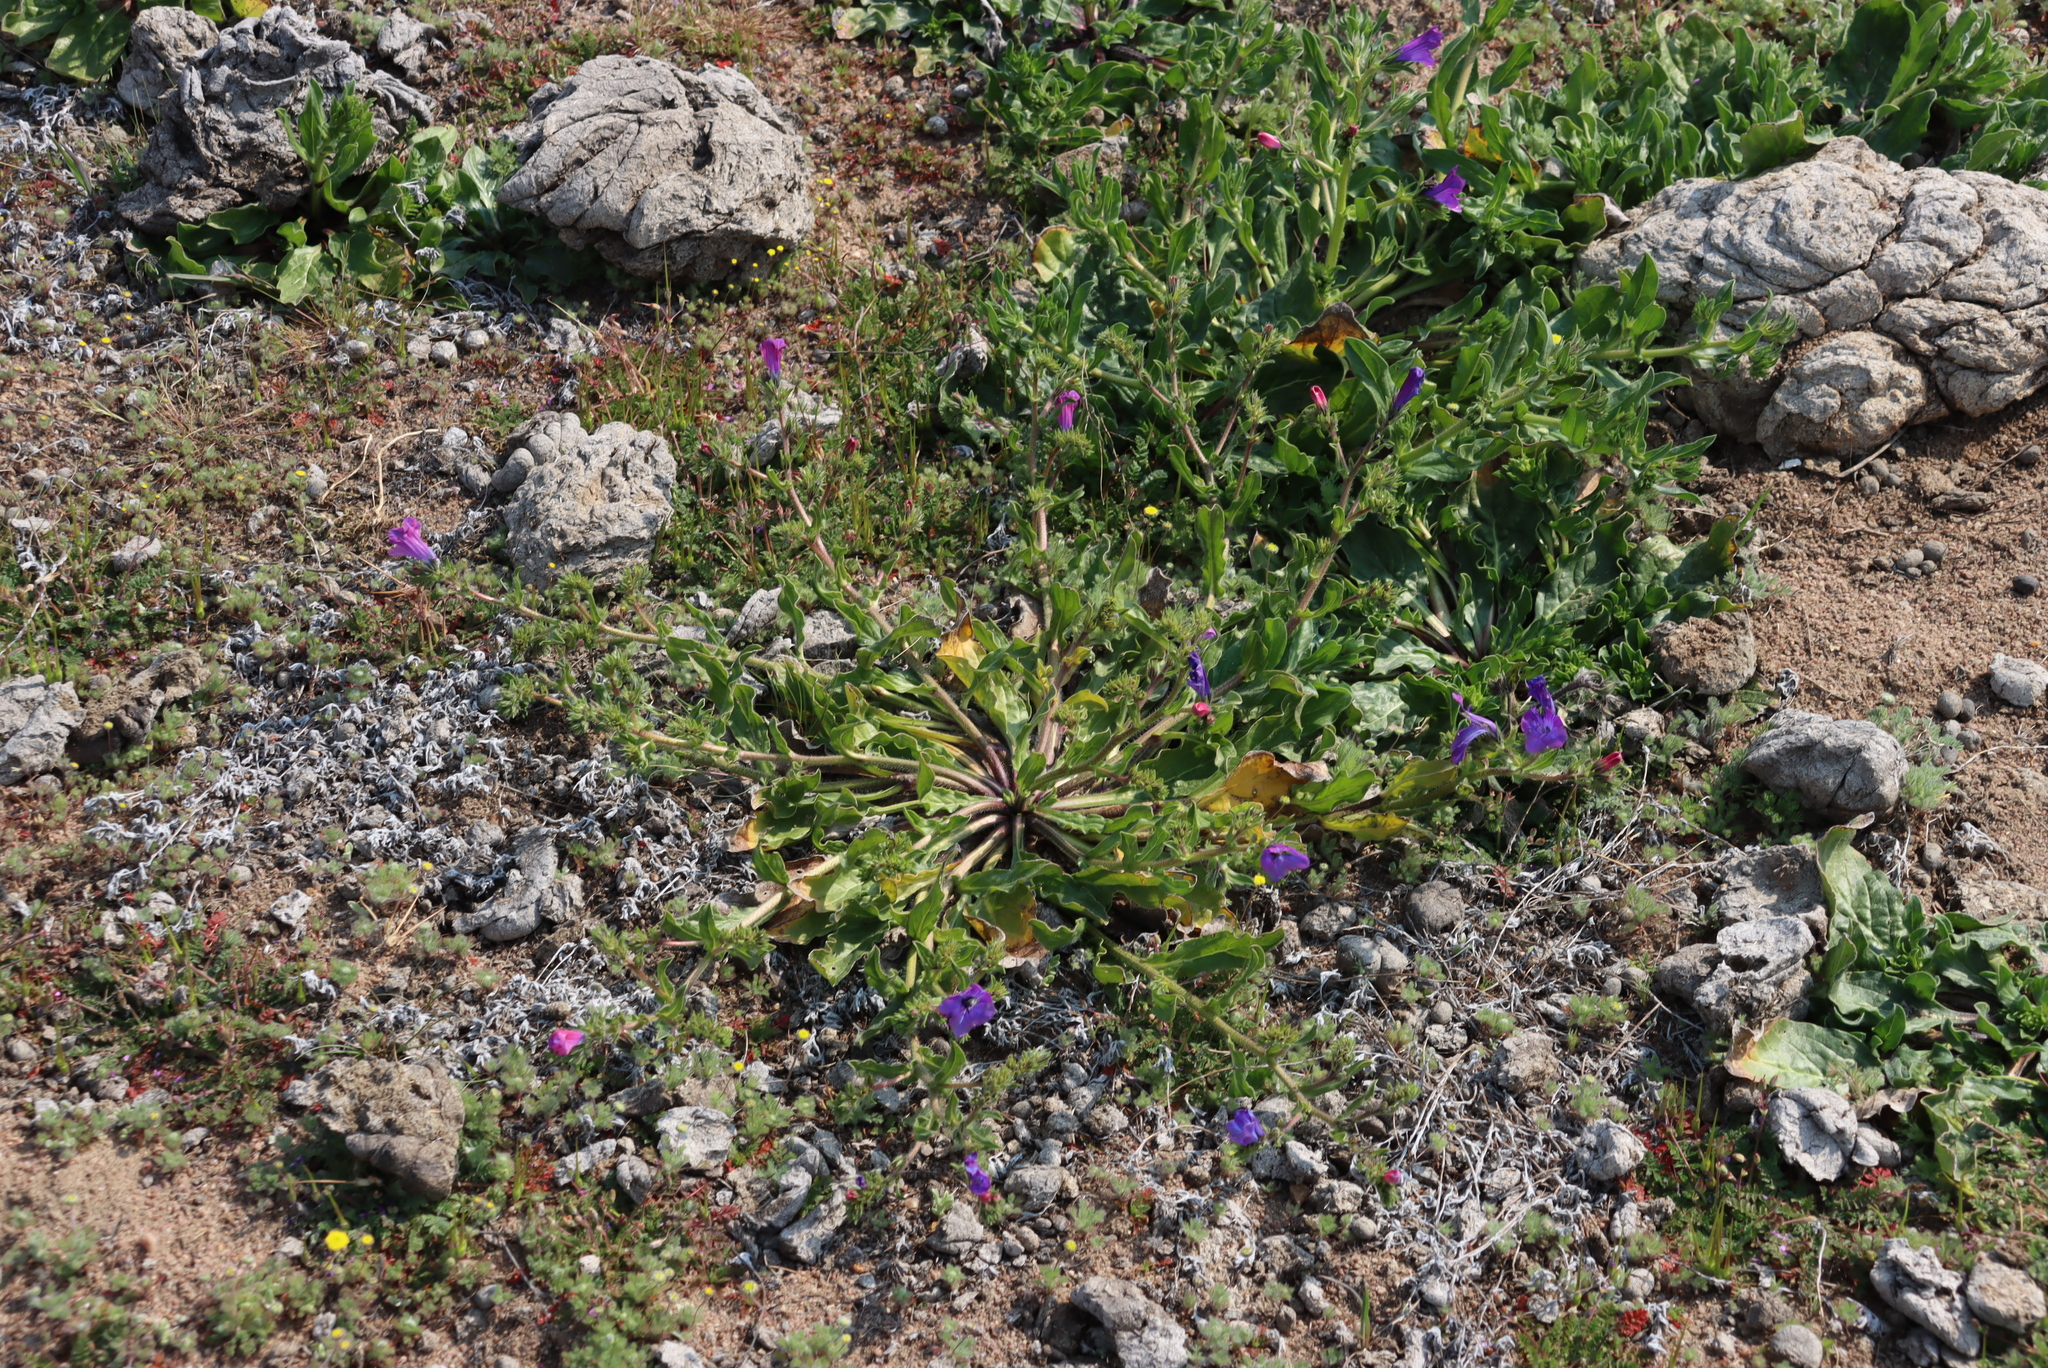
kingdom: Plantae
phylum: Tracheophyta
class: Magnoliopsida
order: Boraginales
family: Boraginaceae
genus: Echium
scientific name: Echium plantagineum
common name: Purple viper's-bugloss
